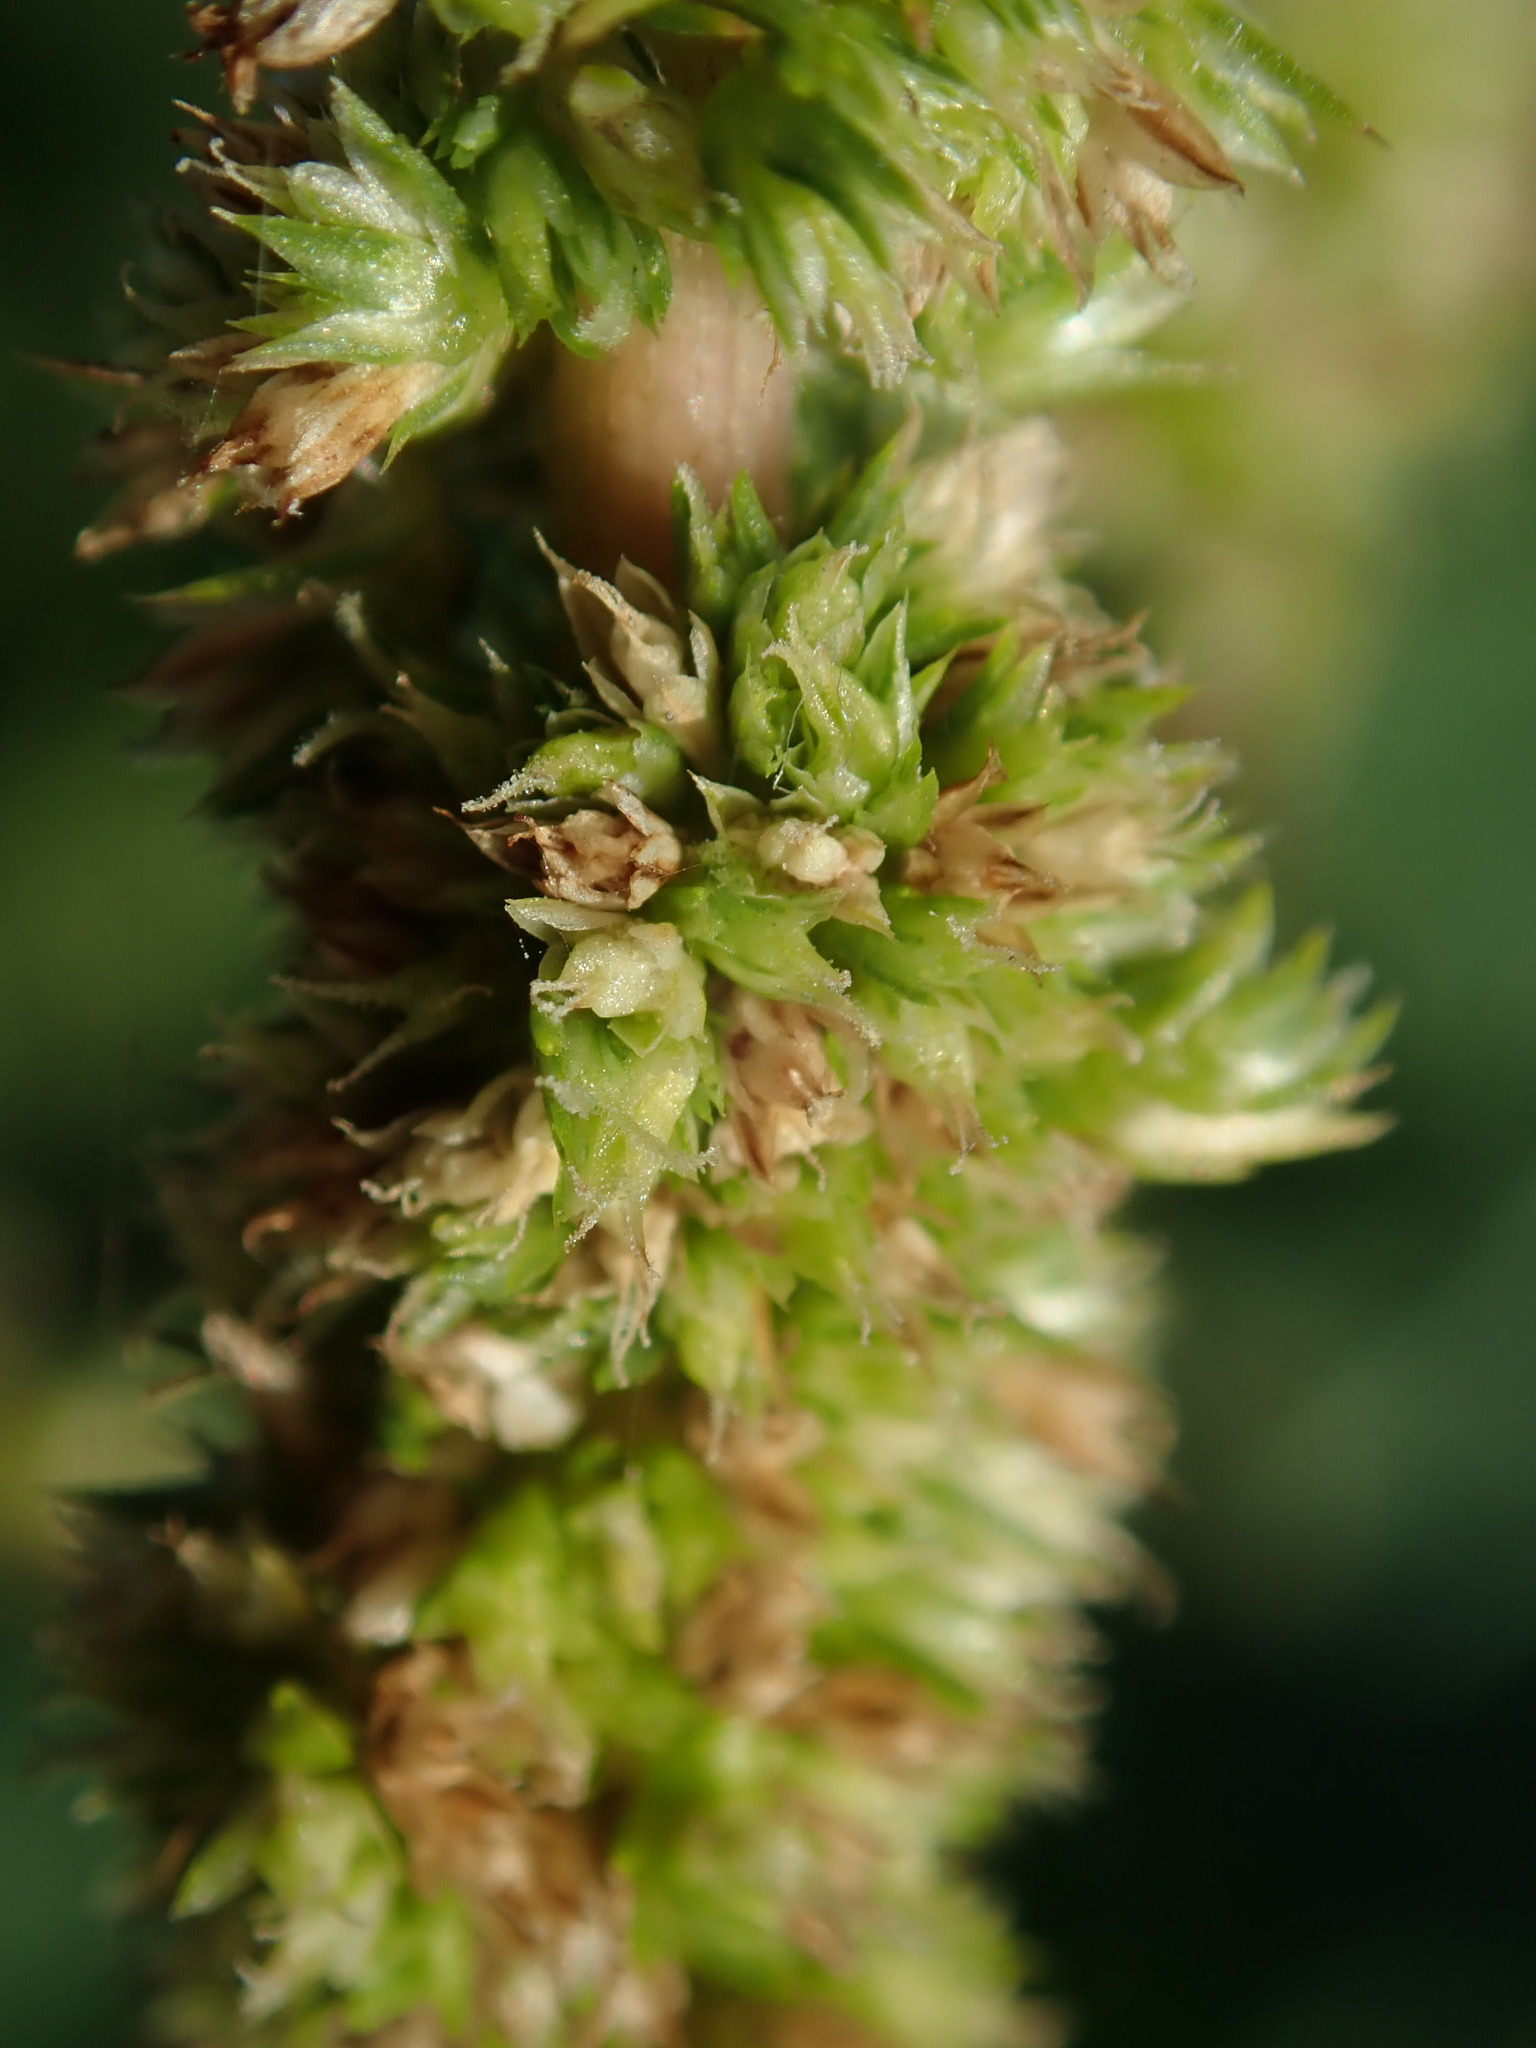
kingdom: Plantae
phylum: Tracheophyta
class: Magnoliopsida
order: Caryophyllales
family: Amaranthaceae
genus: Amaranthus
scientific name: Amaranthus spinosus
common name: Spiny amaranth
